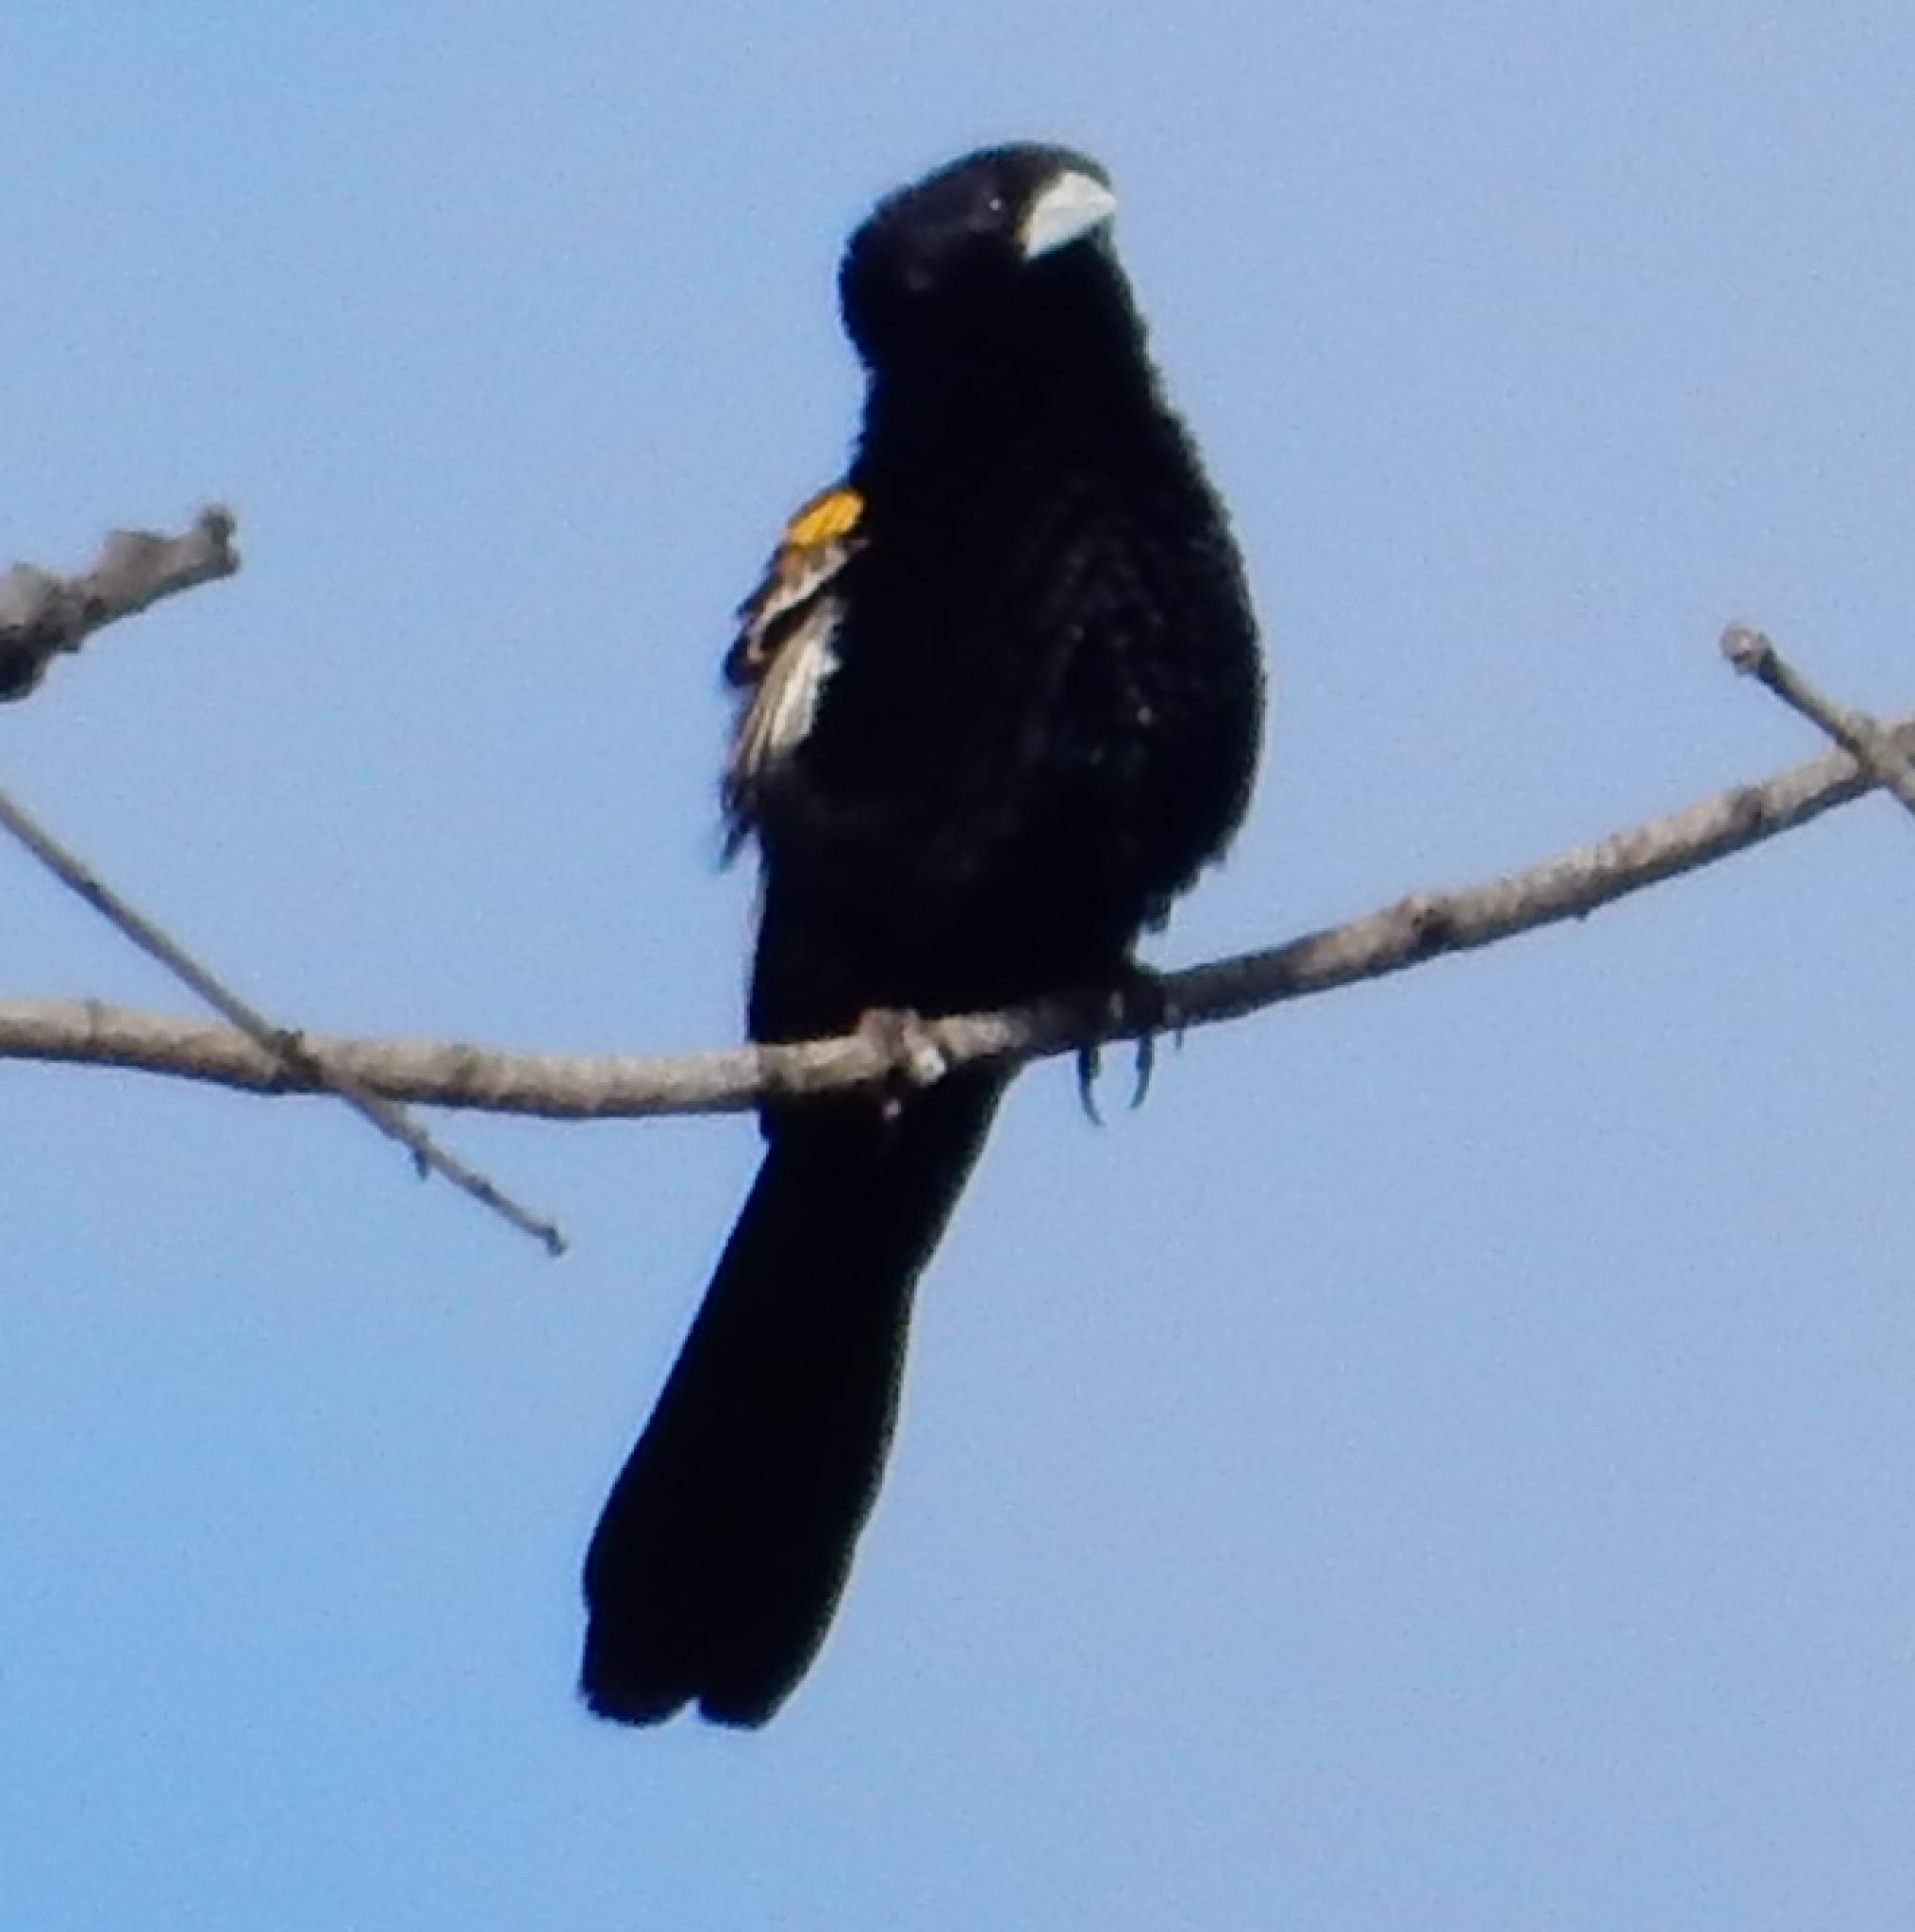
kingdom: Animalia
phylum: Chordata
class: Aves
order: Passeriformes
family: Ploceidae
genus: Euplectes
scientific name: Euplectes albonotatus
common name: White-winged widowbird
